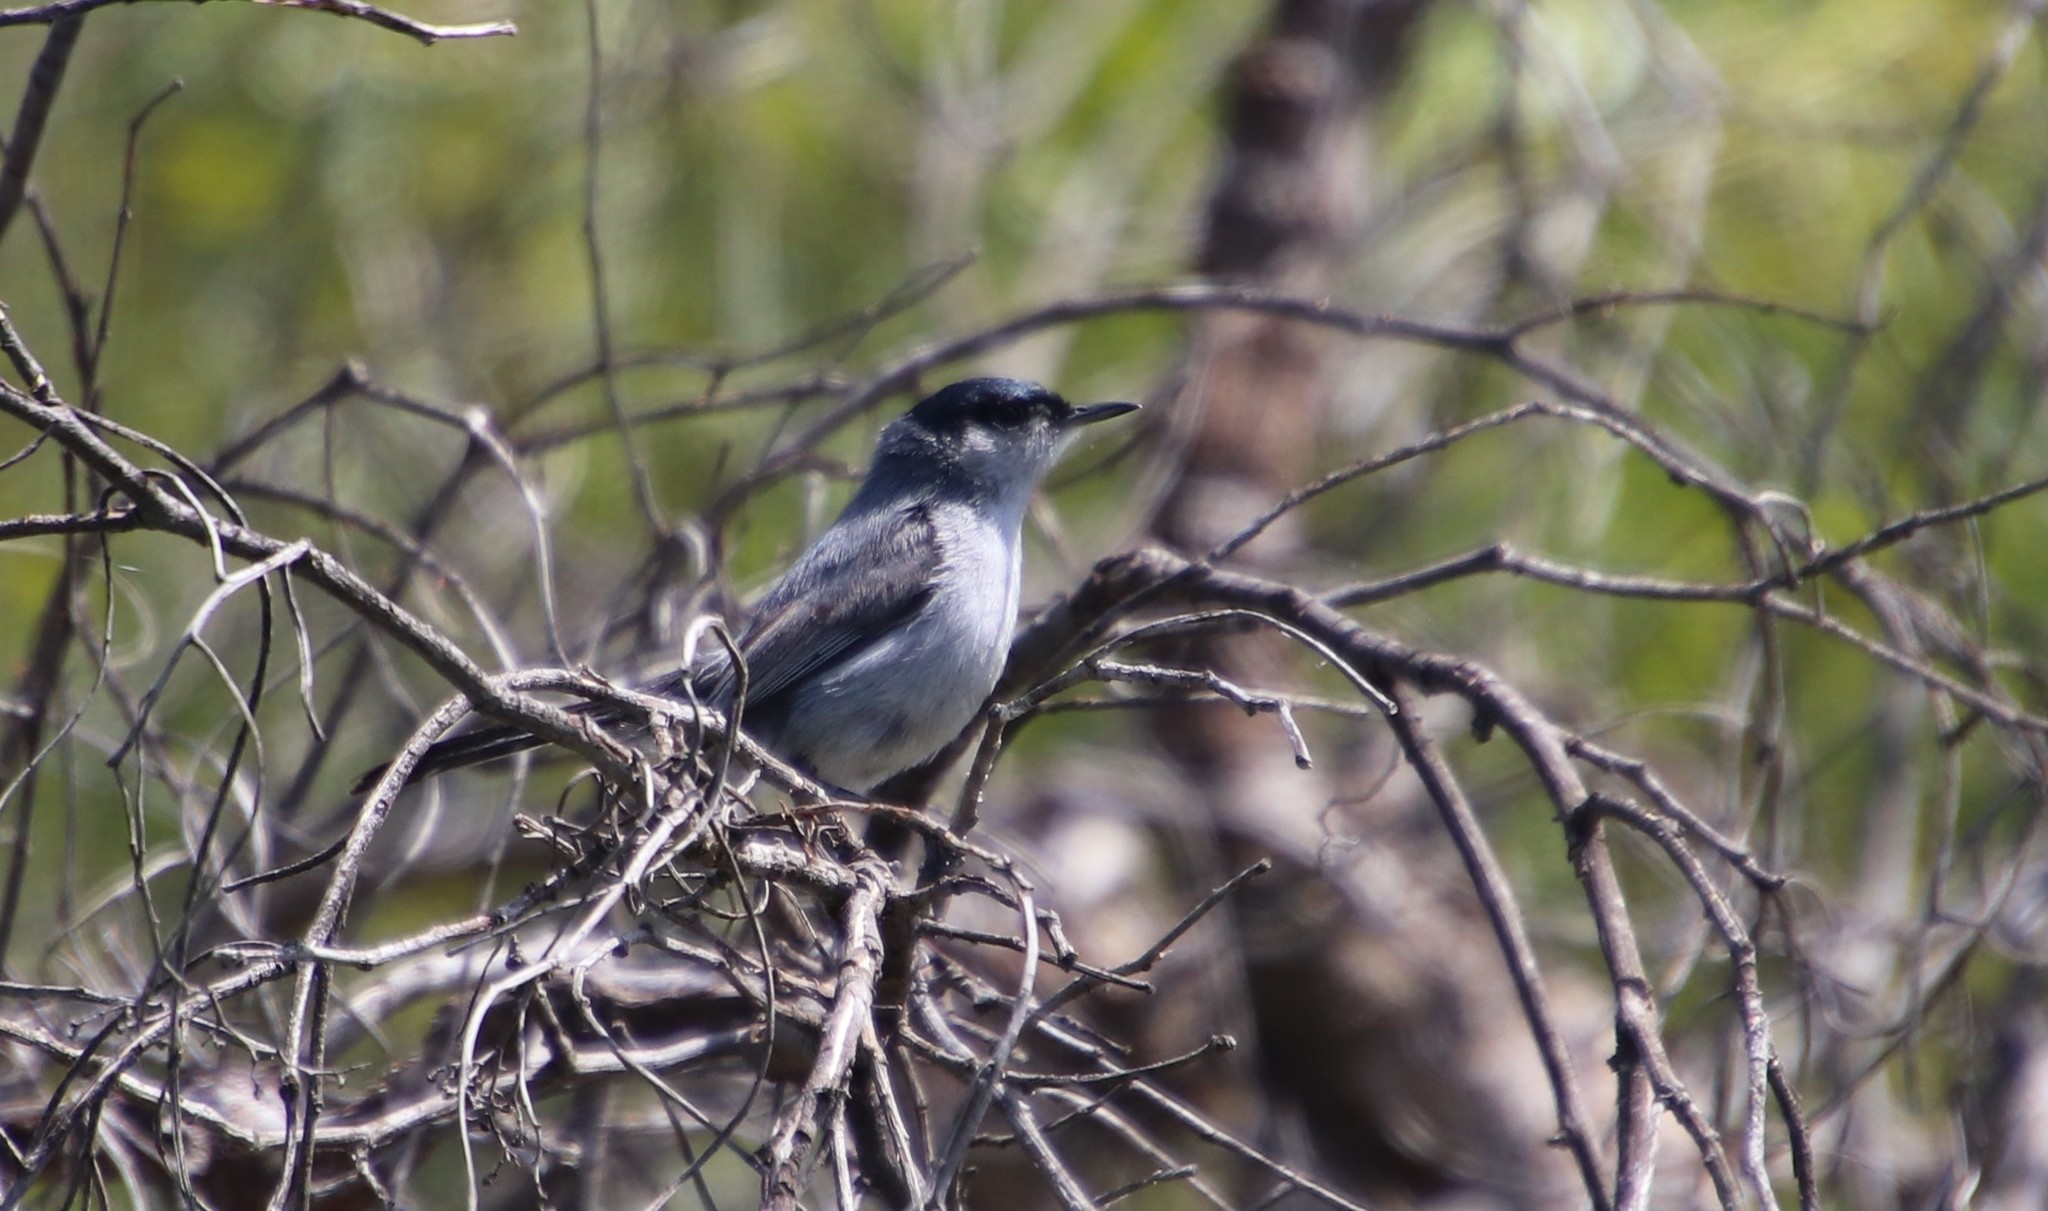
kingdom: Animalia
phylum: Chordata
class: Aves
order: Passeriformes
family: Polioptilidae
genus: Polioptila
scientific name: Polioptila californica
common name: California gnatcatcher
